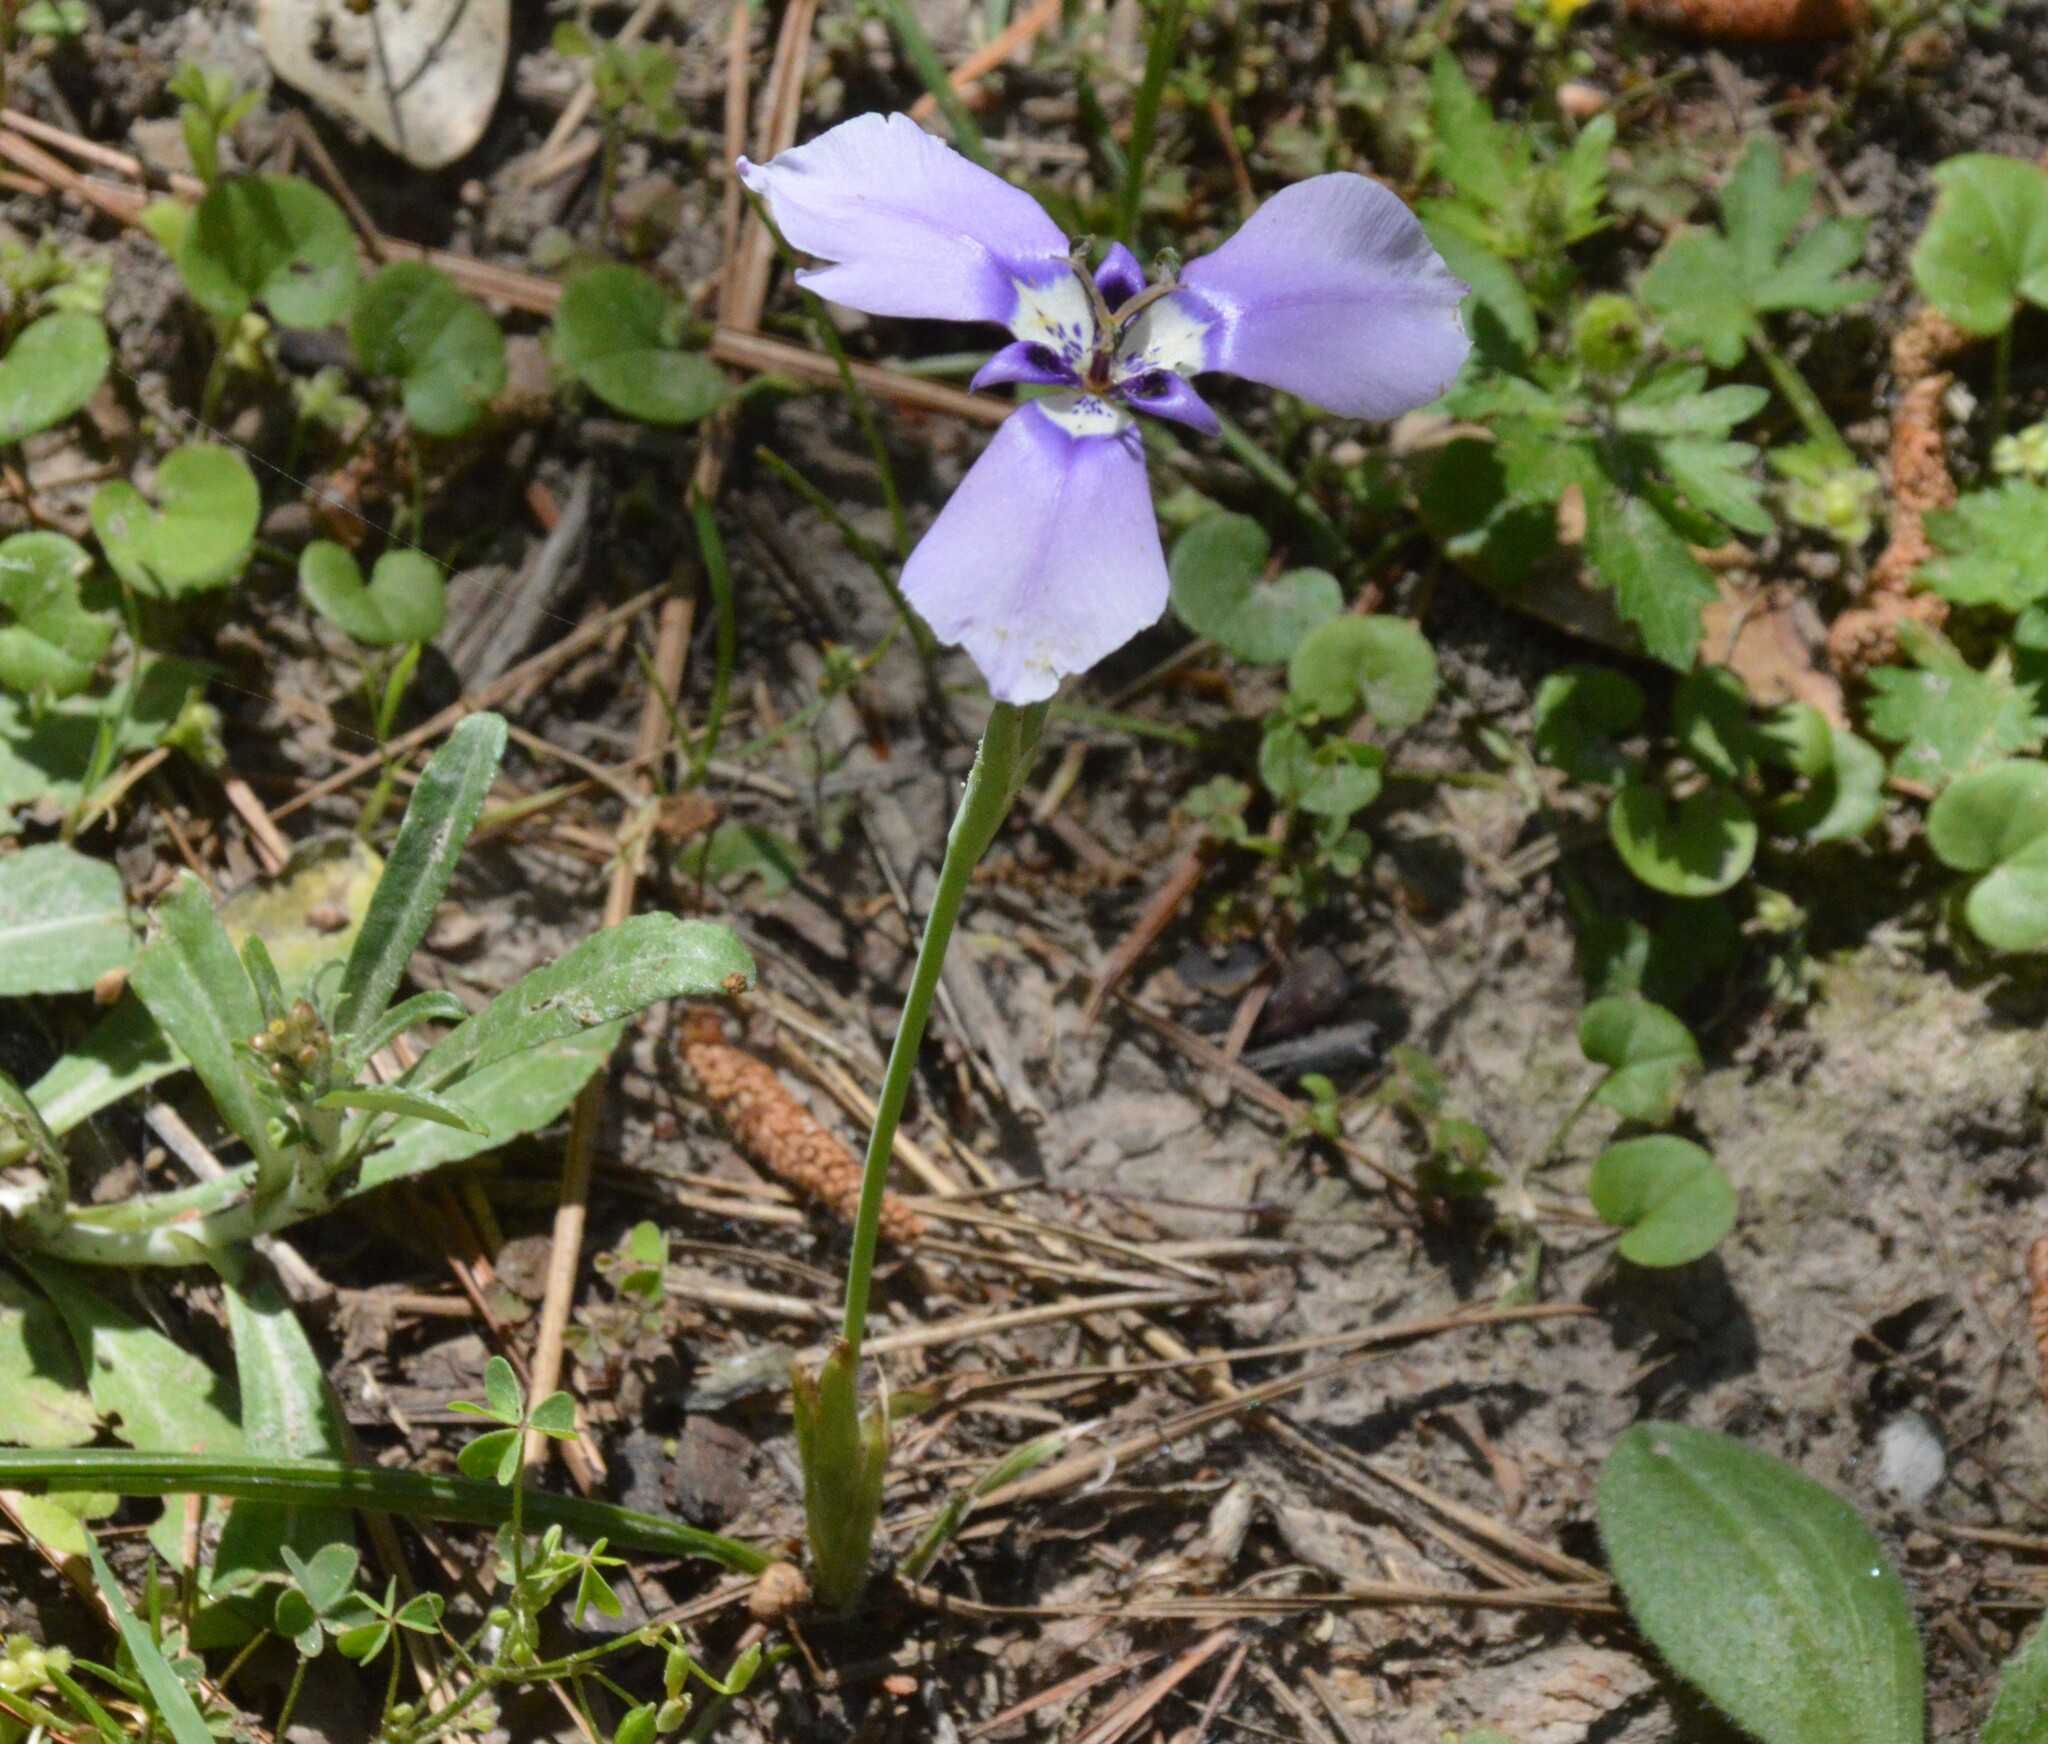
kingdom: Plantae
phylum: Tracheophyta
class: Liliopsida
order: Asparagales
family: Iridaceae
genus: Herbertia
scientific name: Herbertia lahue
